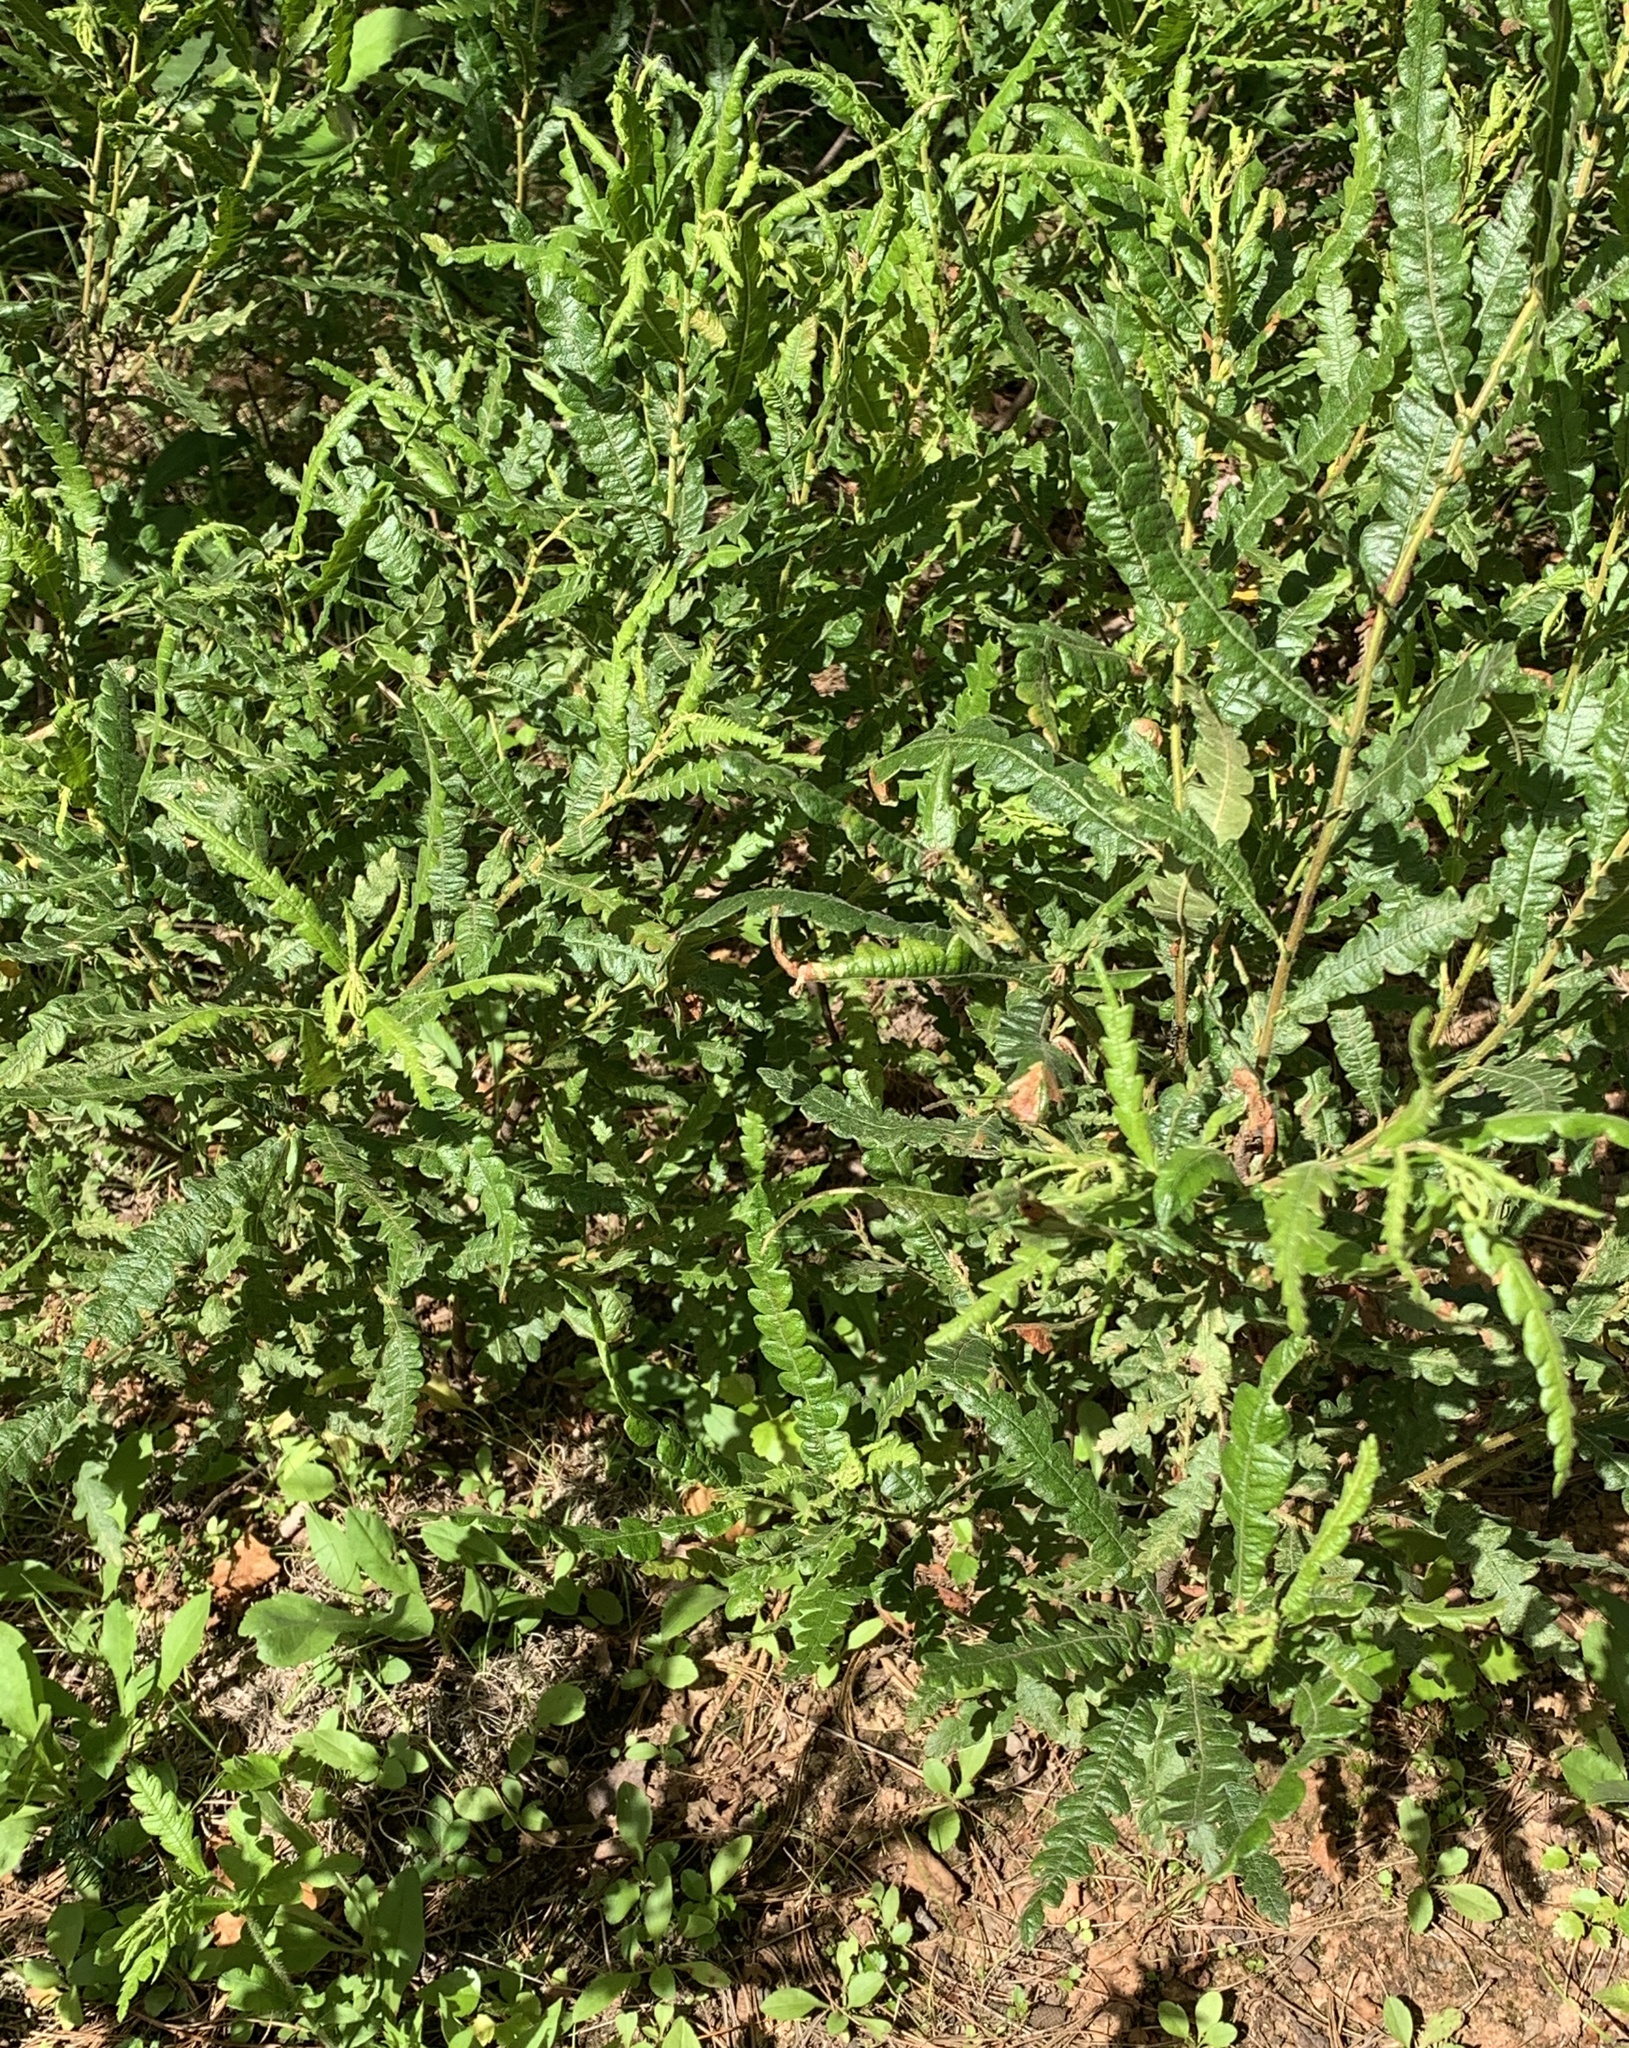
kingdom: Plantae
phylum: Tracheophyta
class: Magnoliopsida
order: Fagales
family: Myricaceae
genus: Comptonia
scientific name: Comptonia peregrina
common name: Sweet-fern
